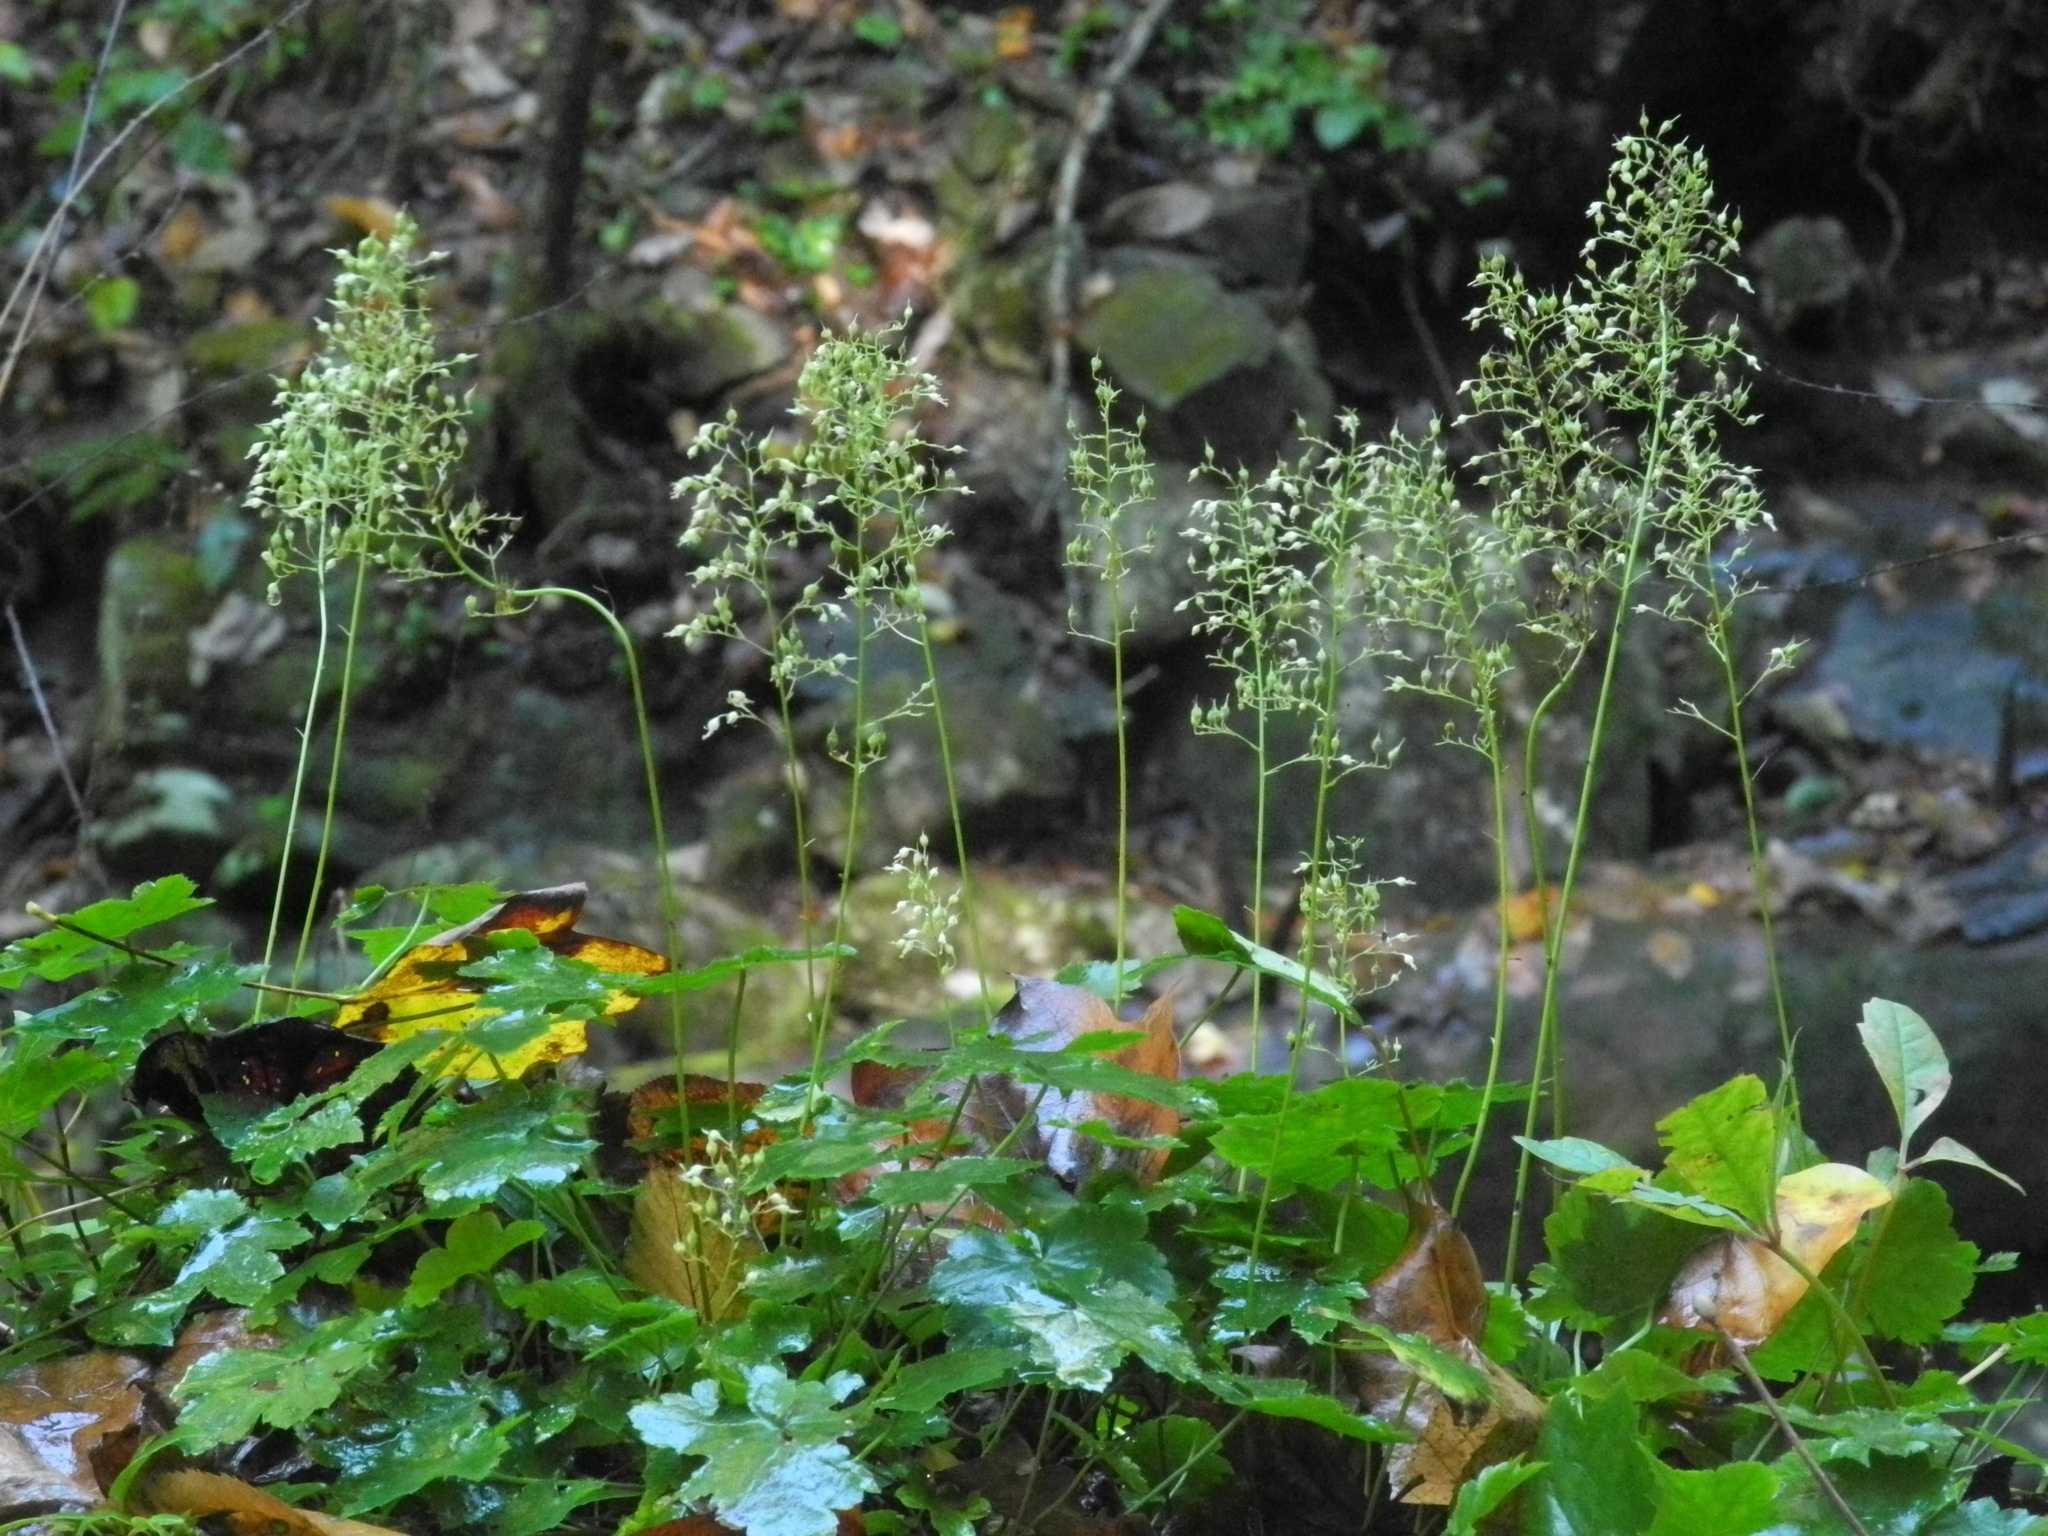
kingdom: Plantae
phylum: Tracheophyta
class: Magnoliopsida
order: Saxifragales
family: Saxifragaceae
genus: Heuchera
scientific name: Heuchera villosa
